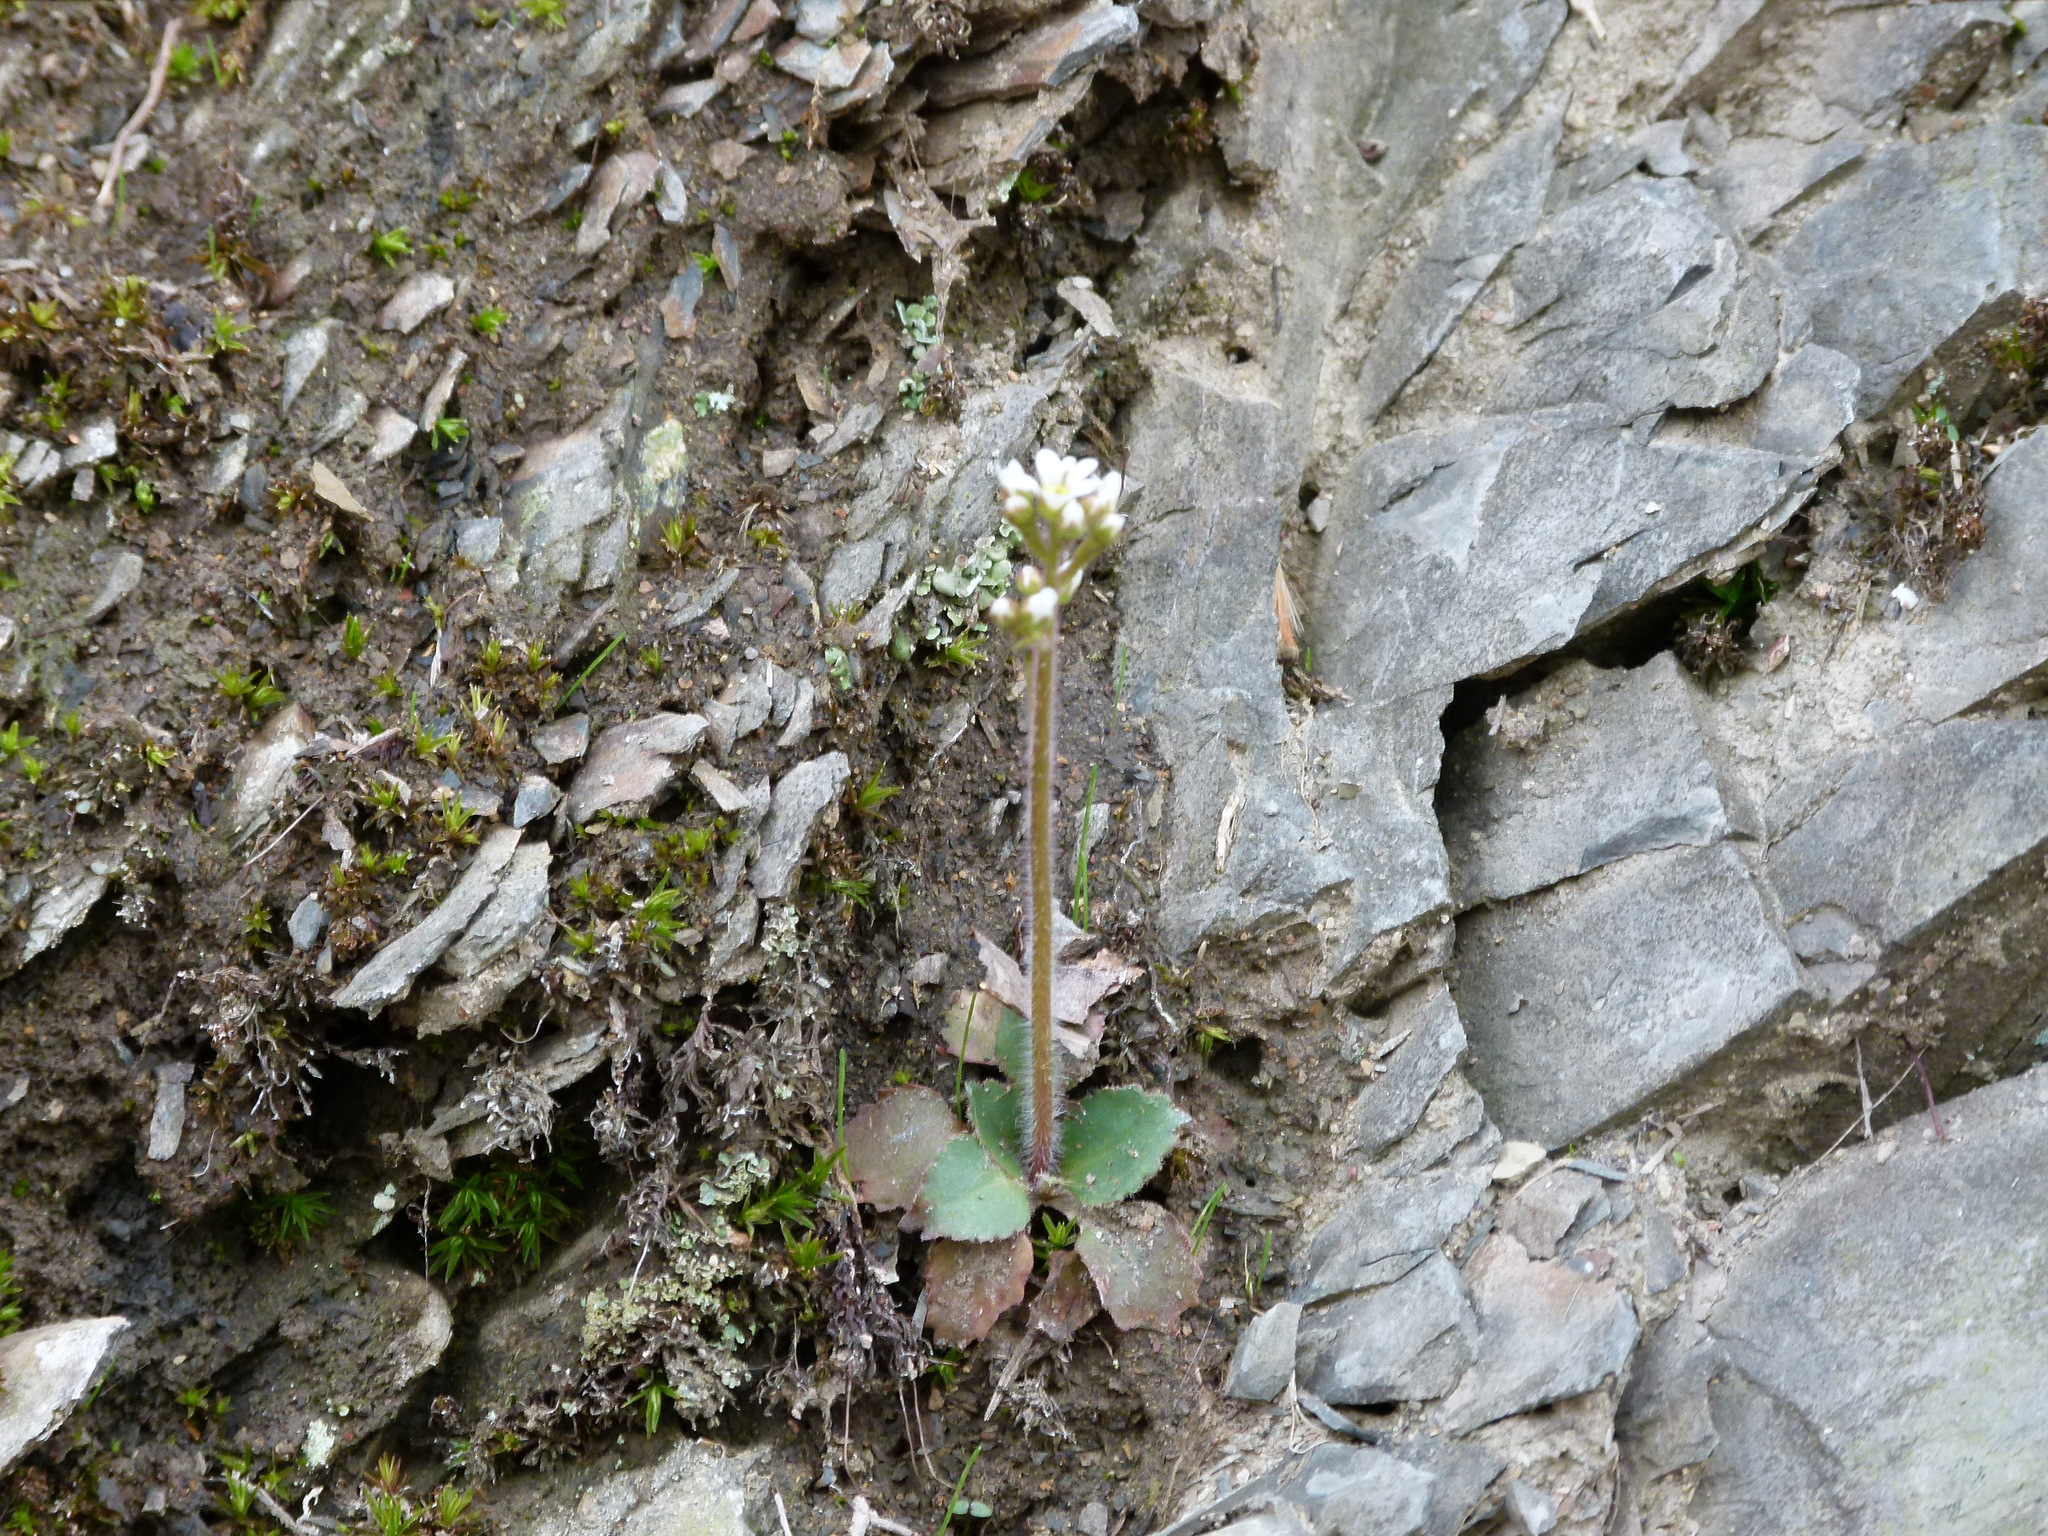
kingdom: Plantae
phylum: Tracheophyta
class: Magnoliopsida
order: Saxifragales
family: Saxifragaceae
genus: Micranthes
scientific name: Micranthes virginiensis
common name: Early saxifrage
